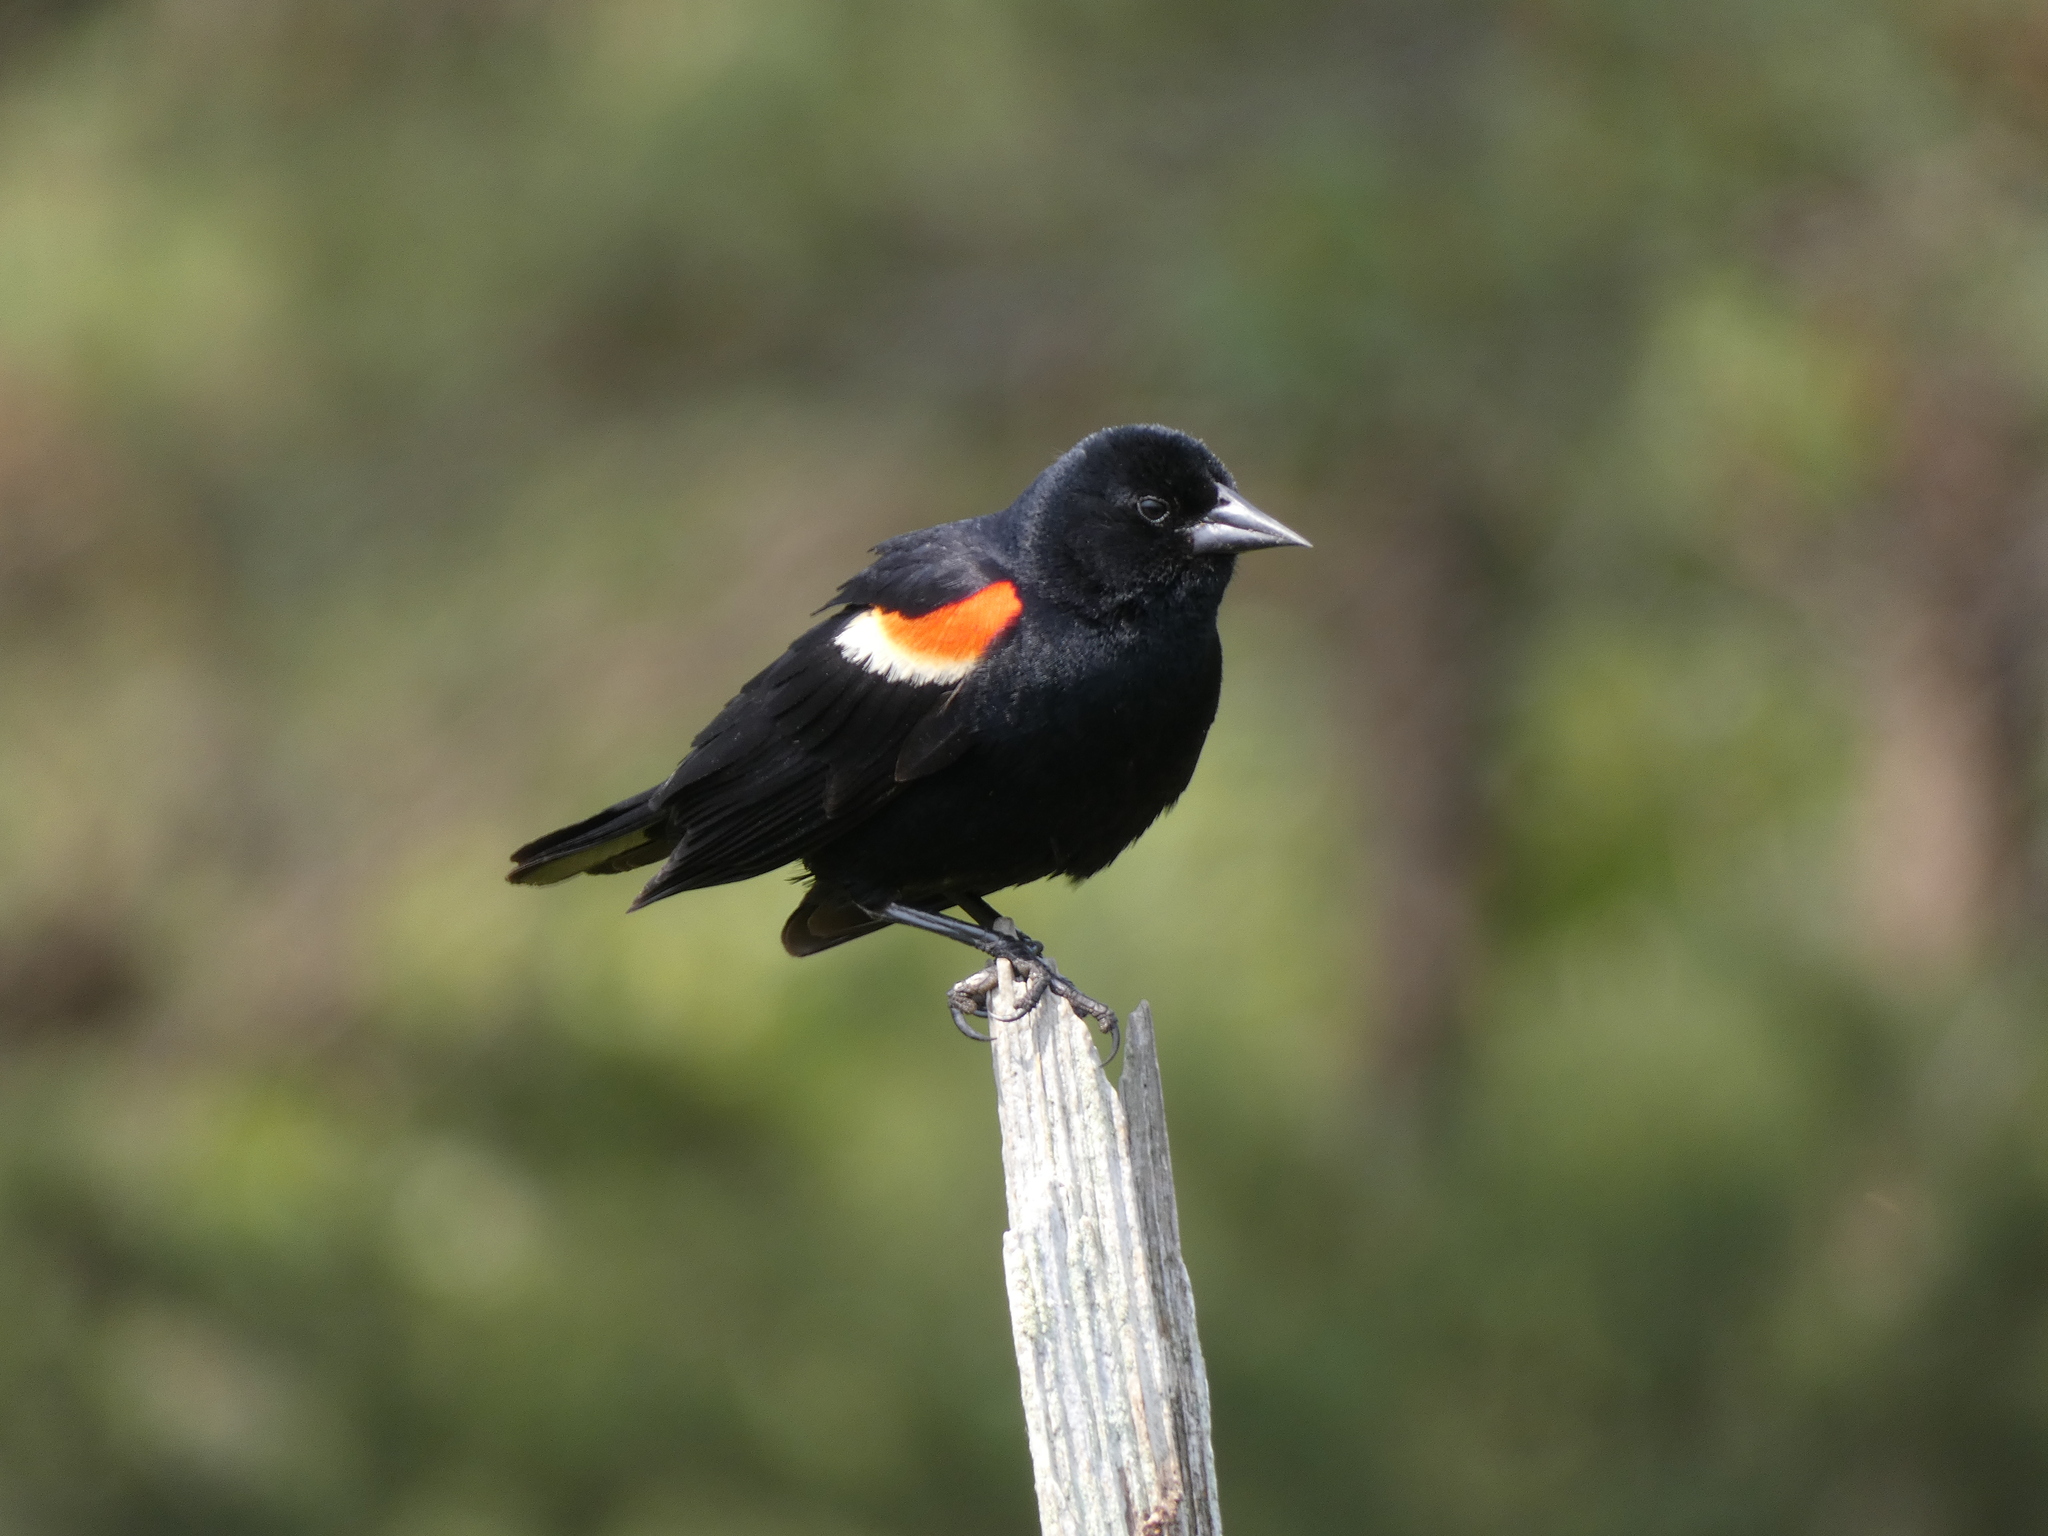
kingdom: Animalia
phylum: Chordata
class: Aves
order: Passeriformes
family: Icteridae
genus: Agelaius
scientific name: Agelaius phoeniceus
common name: Red-winged blackbird
